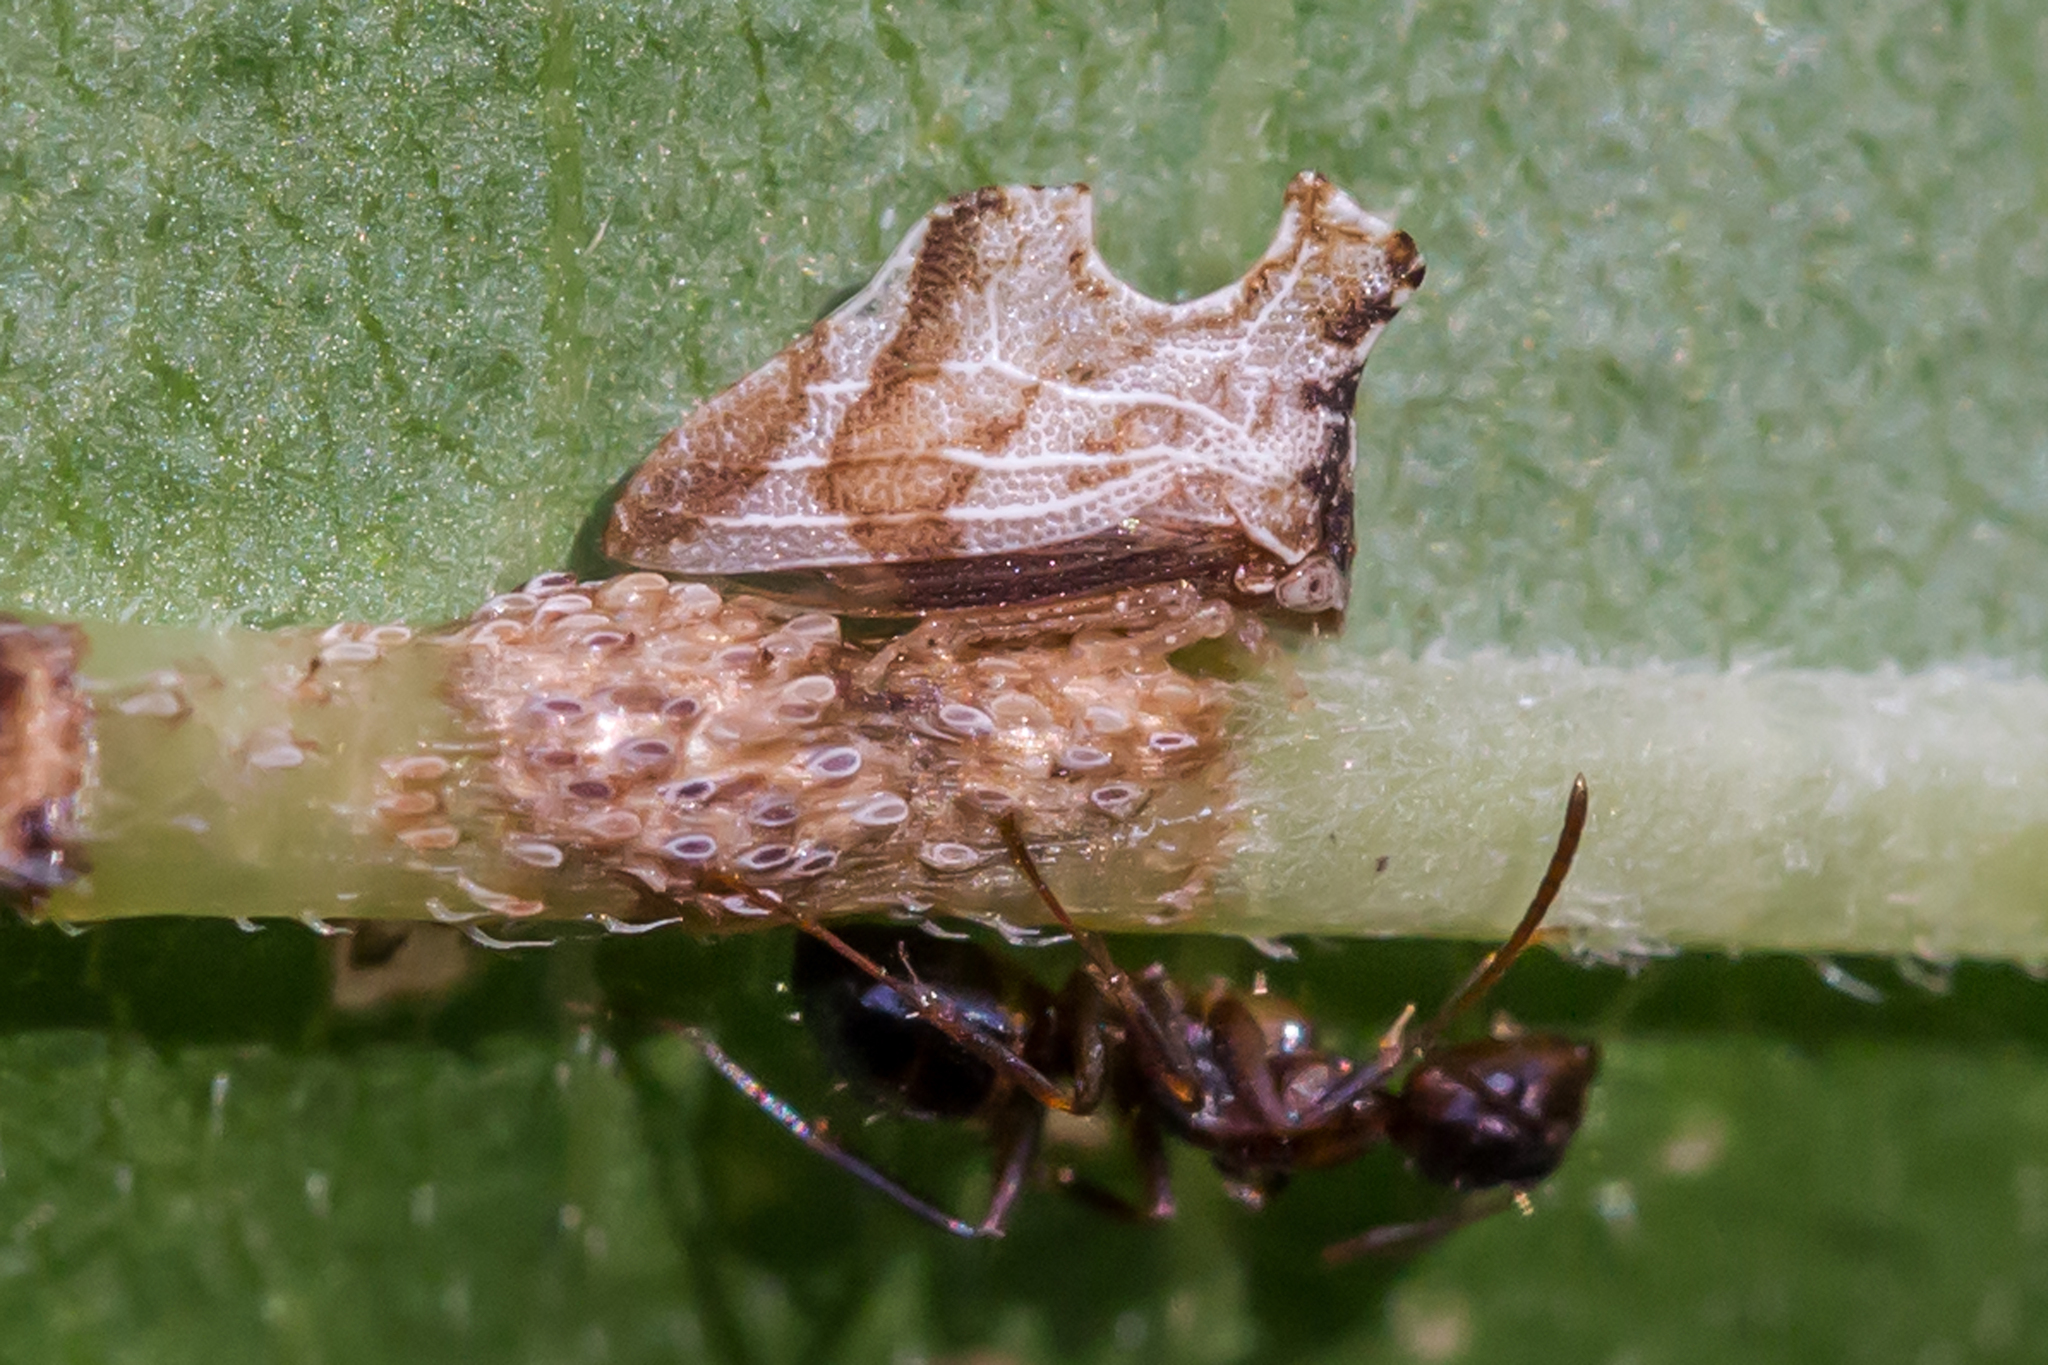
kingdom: Animalia
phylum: Arthropoda
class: Insecta
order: Hemiptera
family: Membracidae
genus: Entylia
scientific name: Entylia carinata
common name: Keeled treehopper
